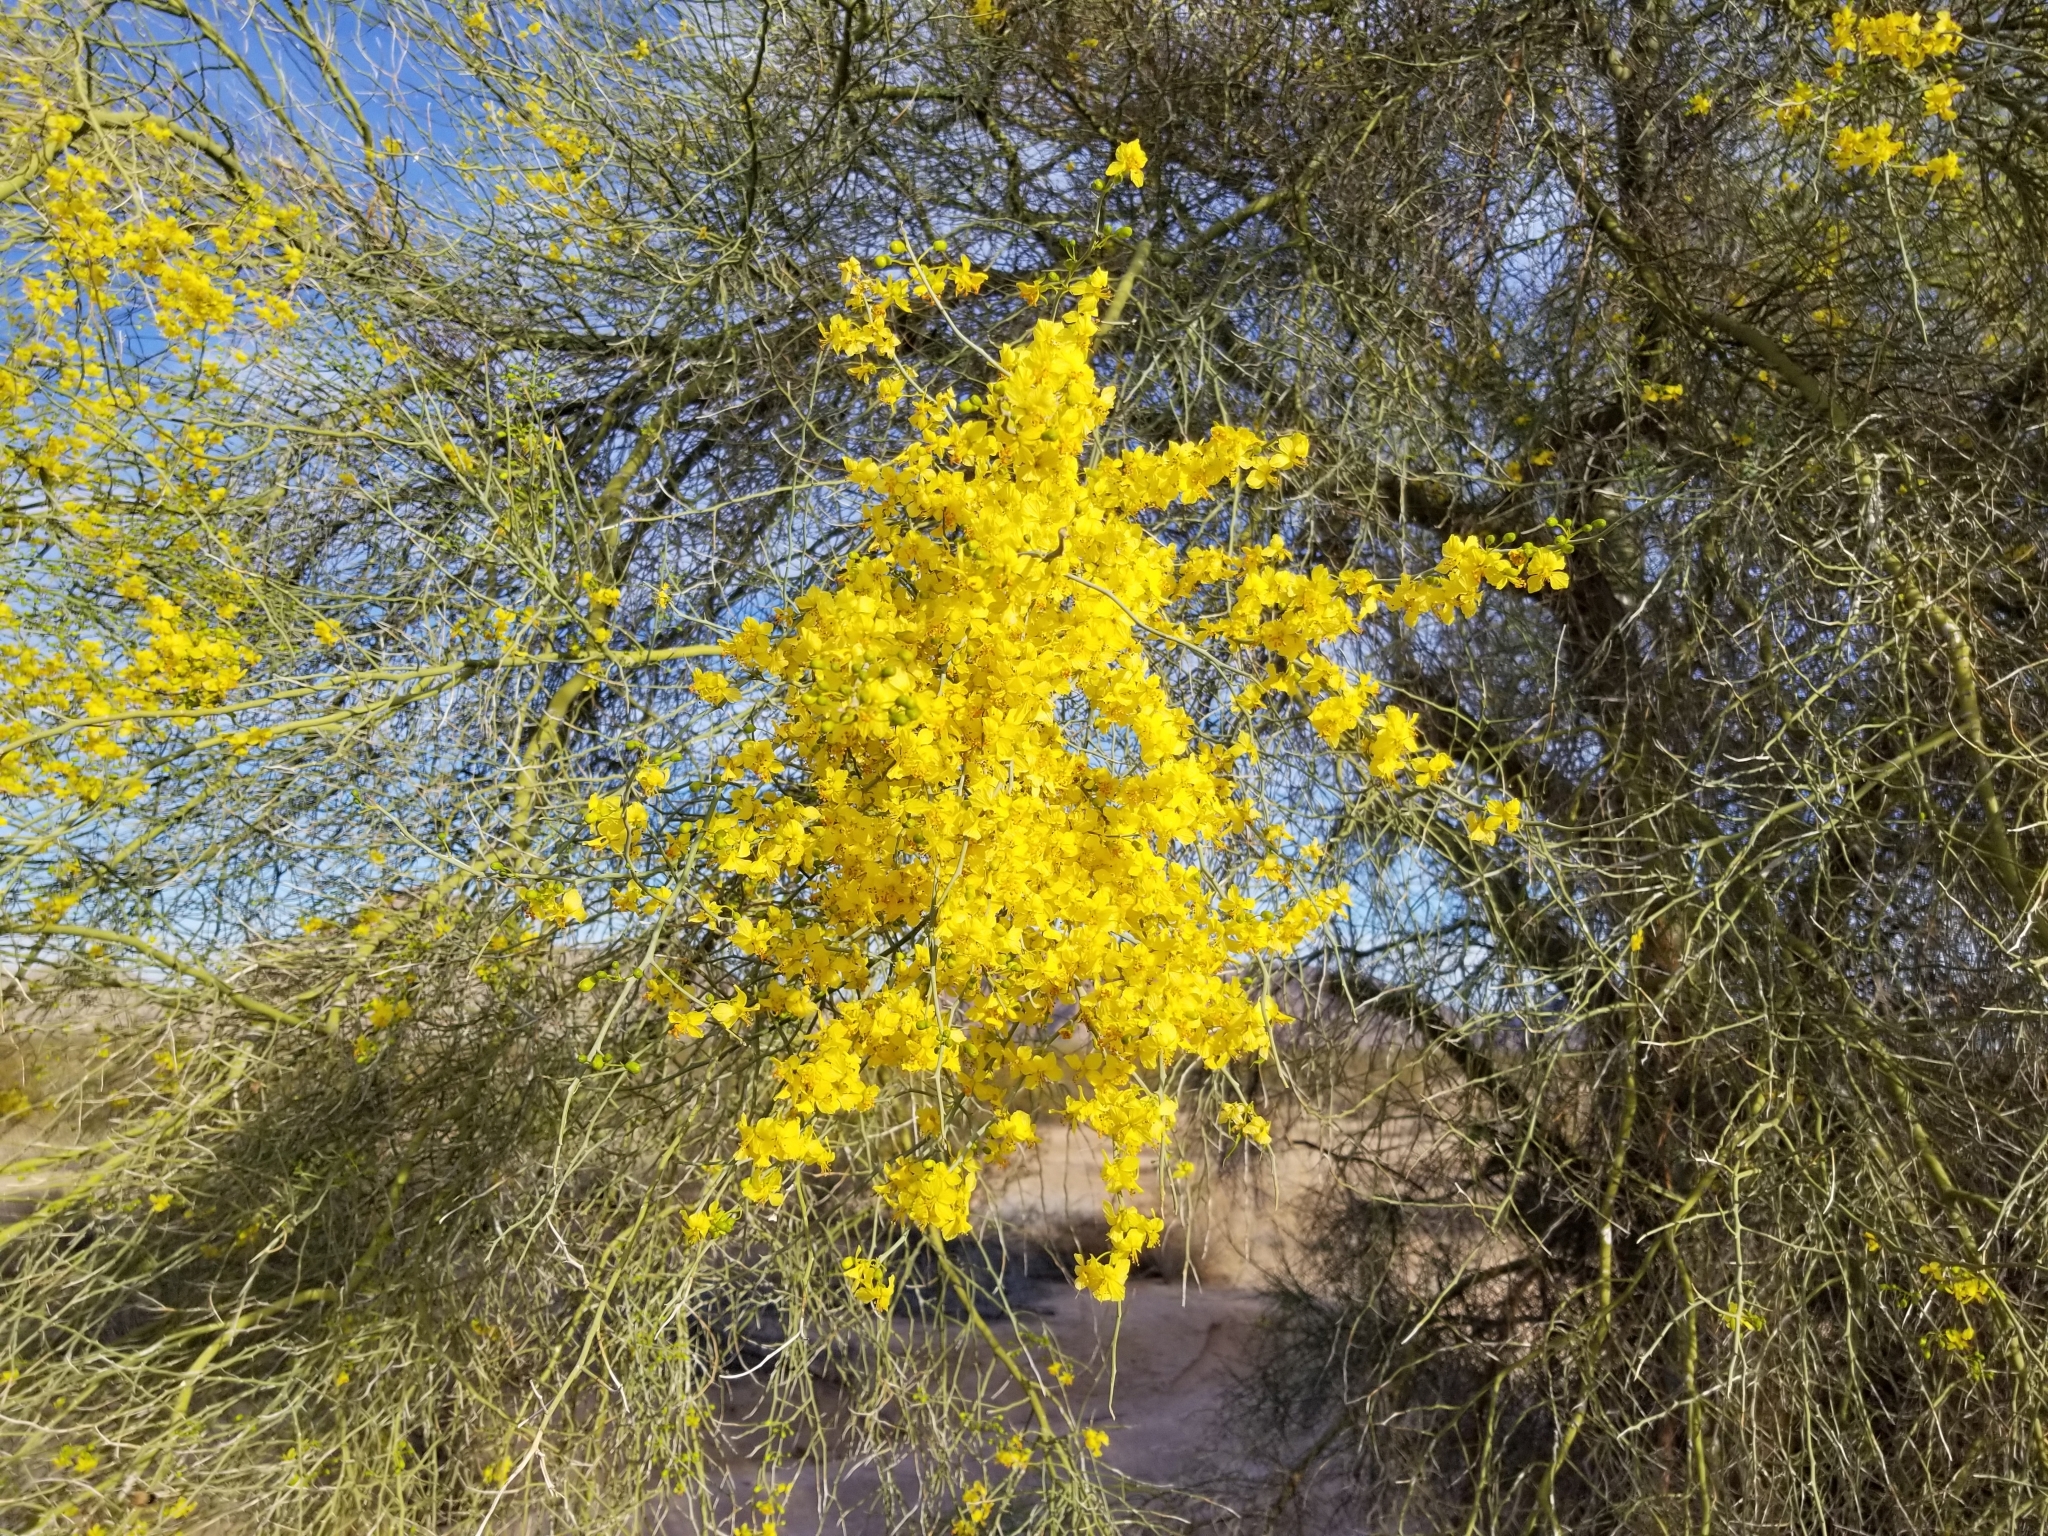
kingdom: Plantae
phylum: Tracheophyta
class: Magnoliopsida
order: Fabales
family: Fabaceae
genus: Parkinsonia
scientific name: Parkinsonia florida
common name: Blue paloverde
